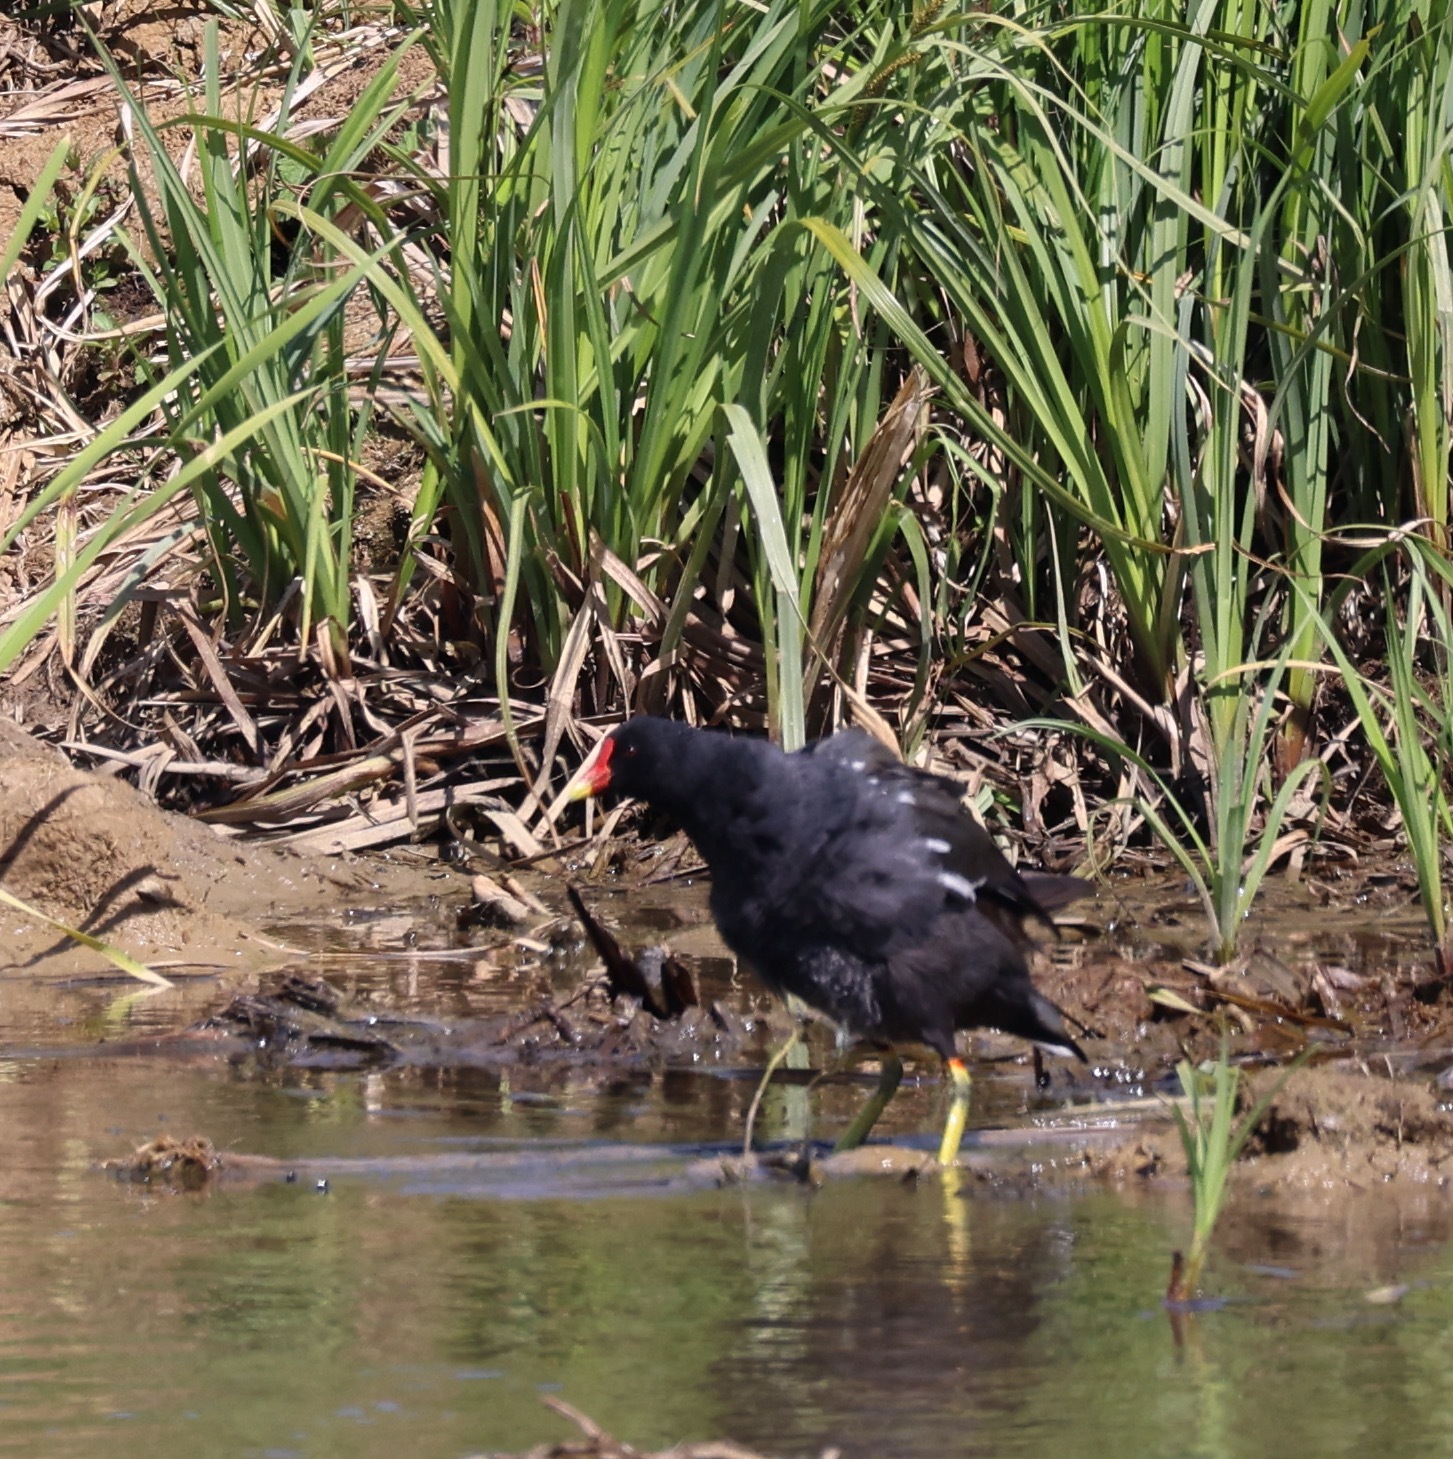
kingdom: Animalia
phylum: Chordata
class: Aves
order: Gruiformes
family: Rallidae
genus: Gallinula
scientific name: Gallinula chloropus
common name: Common moorhen
